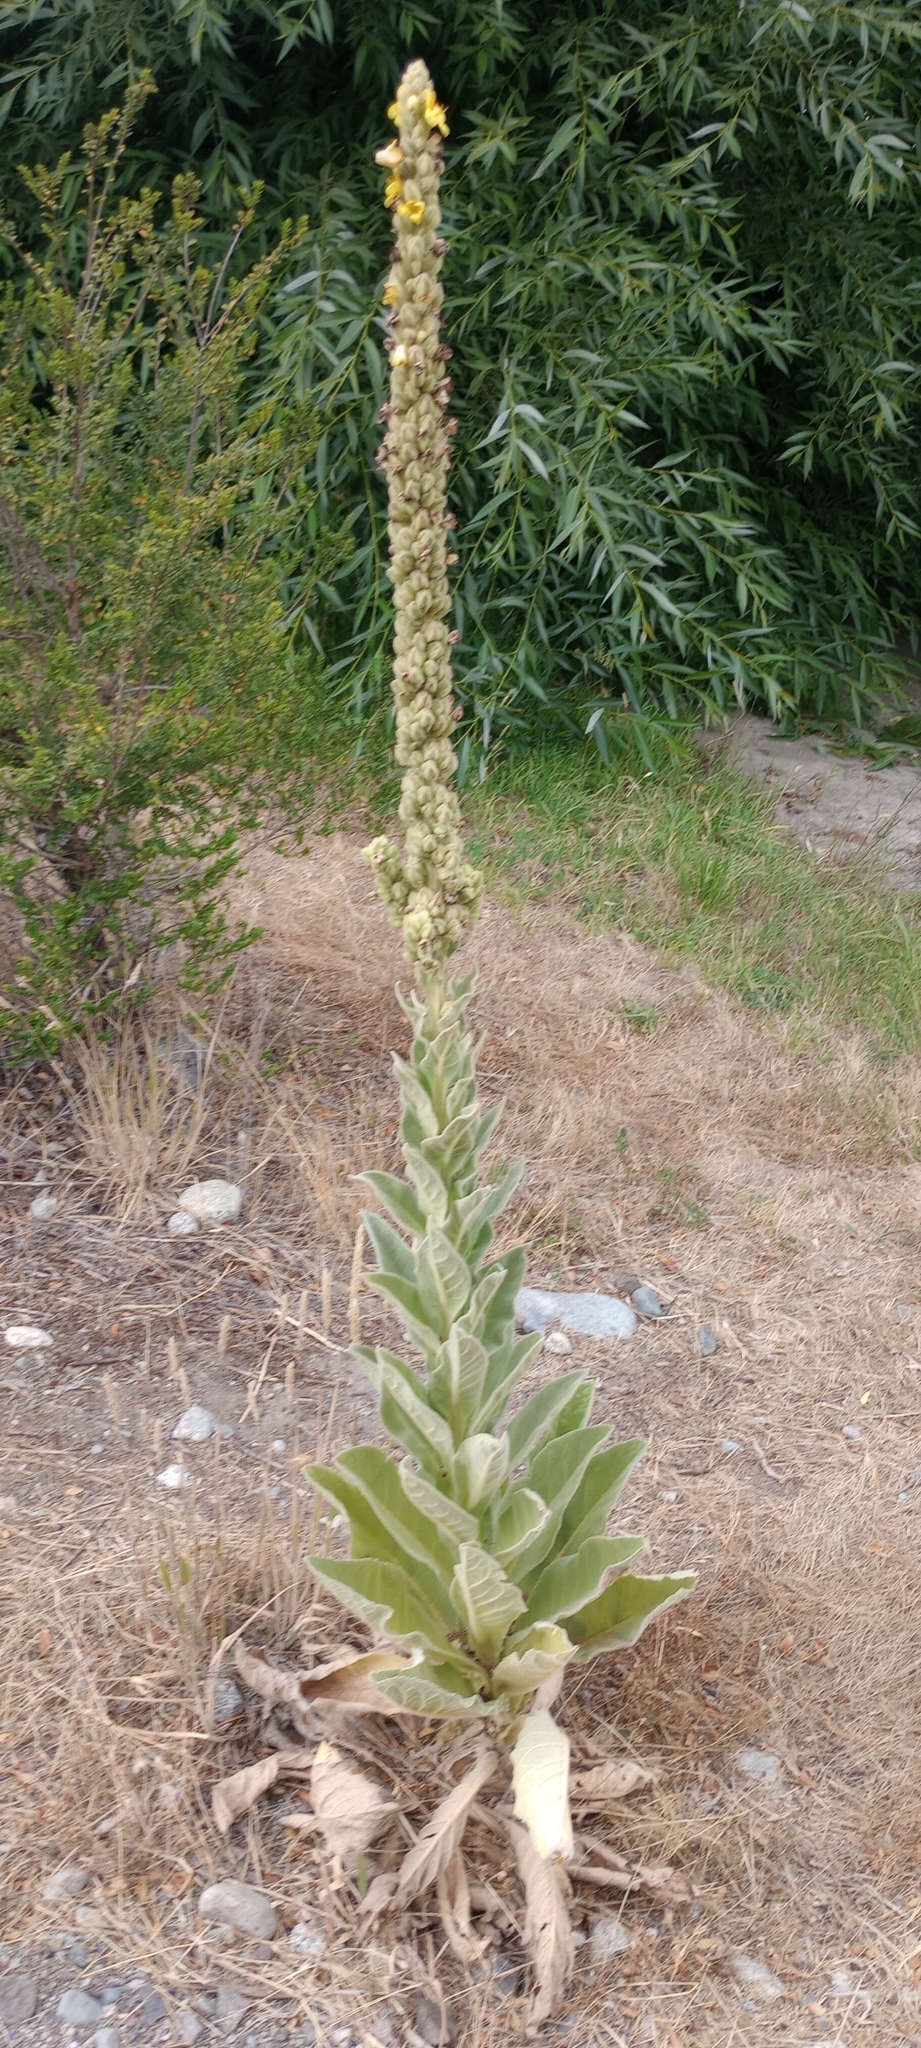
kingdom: Plantae
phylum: Tracheophyta
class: Magnoliopsida
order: Lamiales
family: Scrophulariaceae
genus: Verbascum
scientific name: Verbascum thapsus
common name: Common mullein
